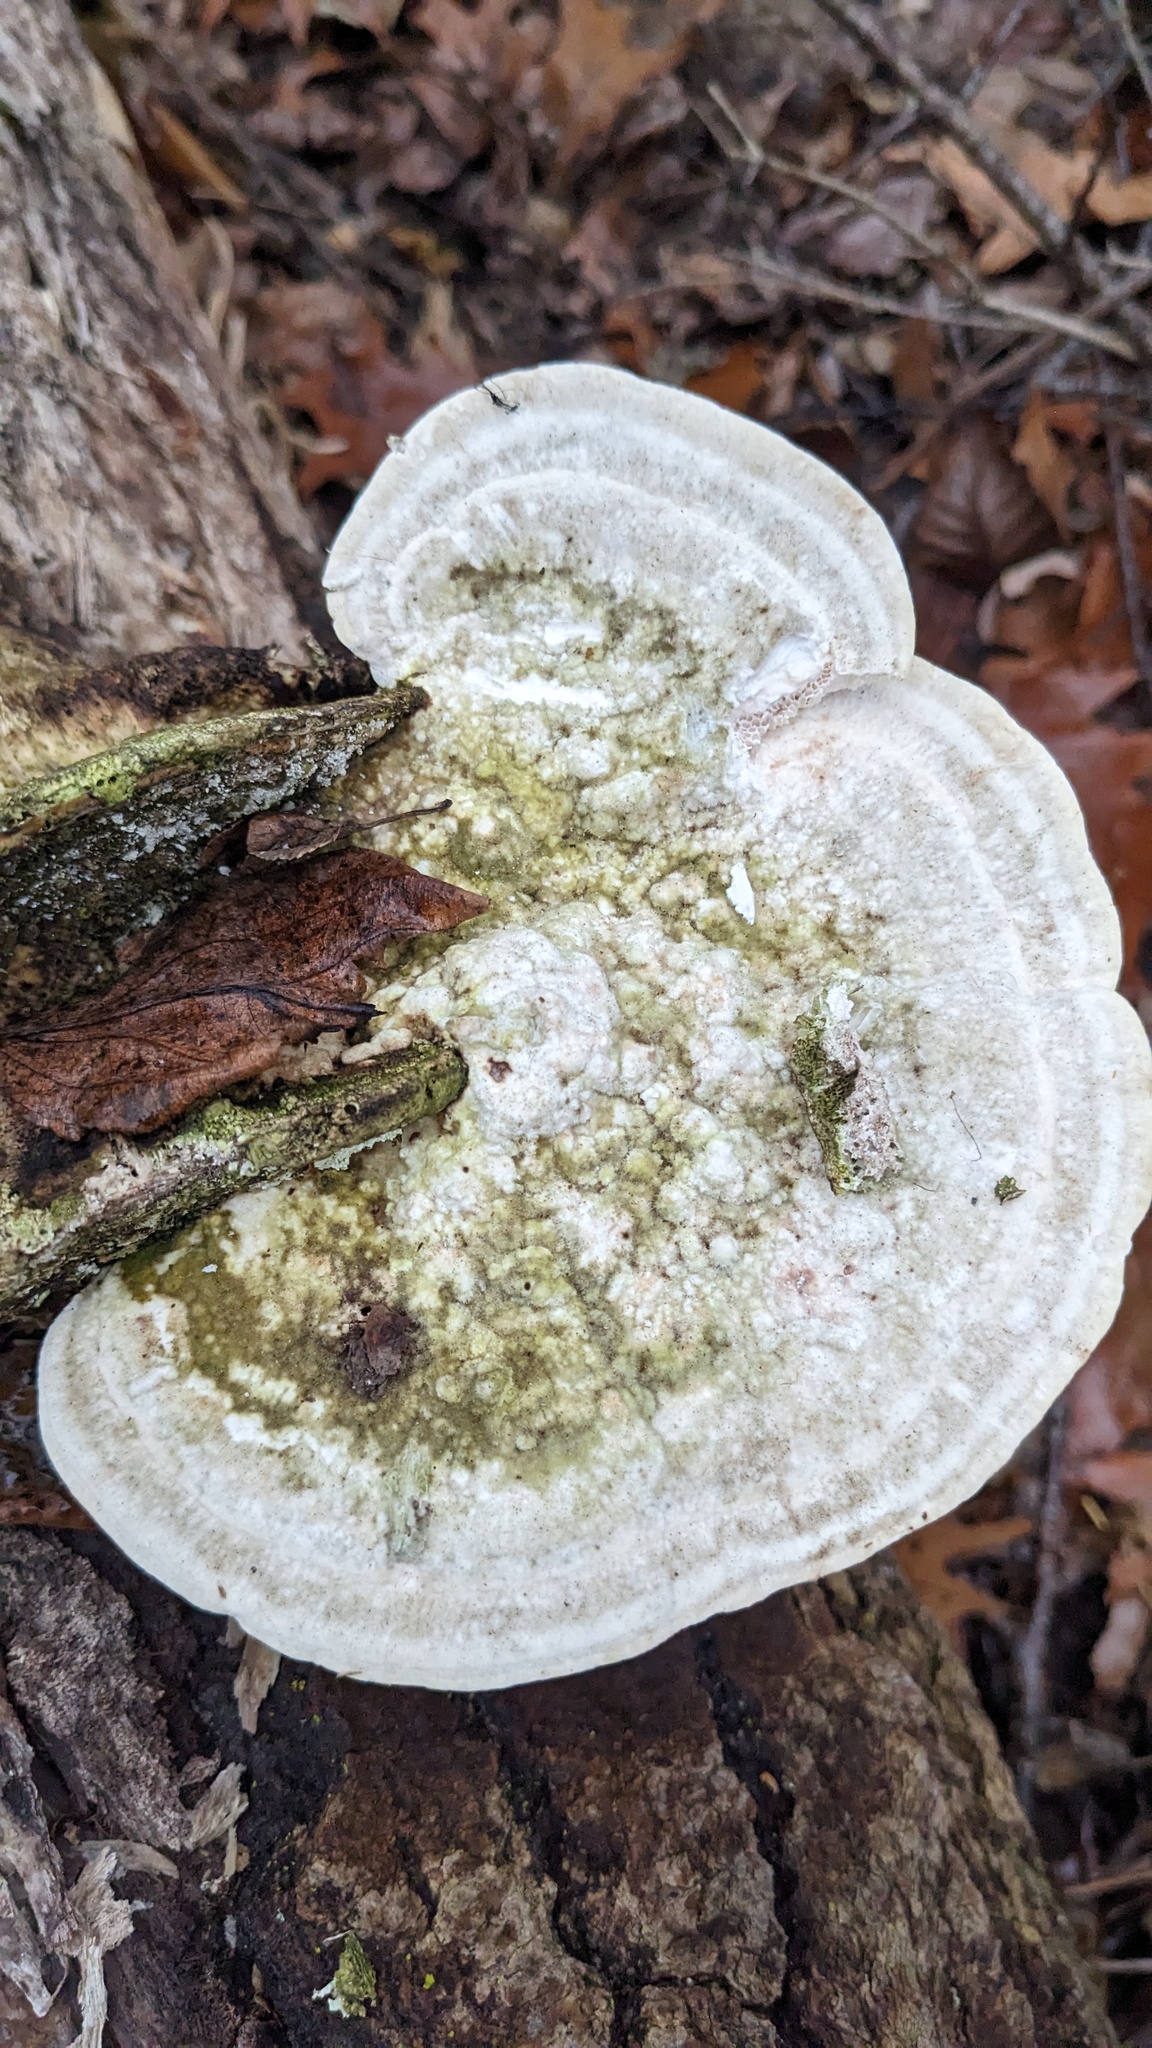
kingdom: Fungi
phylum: Basidiomycota
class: Agaricomycetes
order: Polyporales
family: Polyporaceae
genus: Trametes
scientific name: Trametes gibbosa
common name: Lumpy bracket
